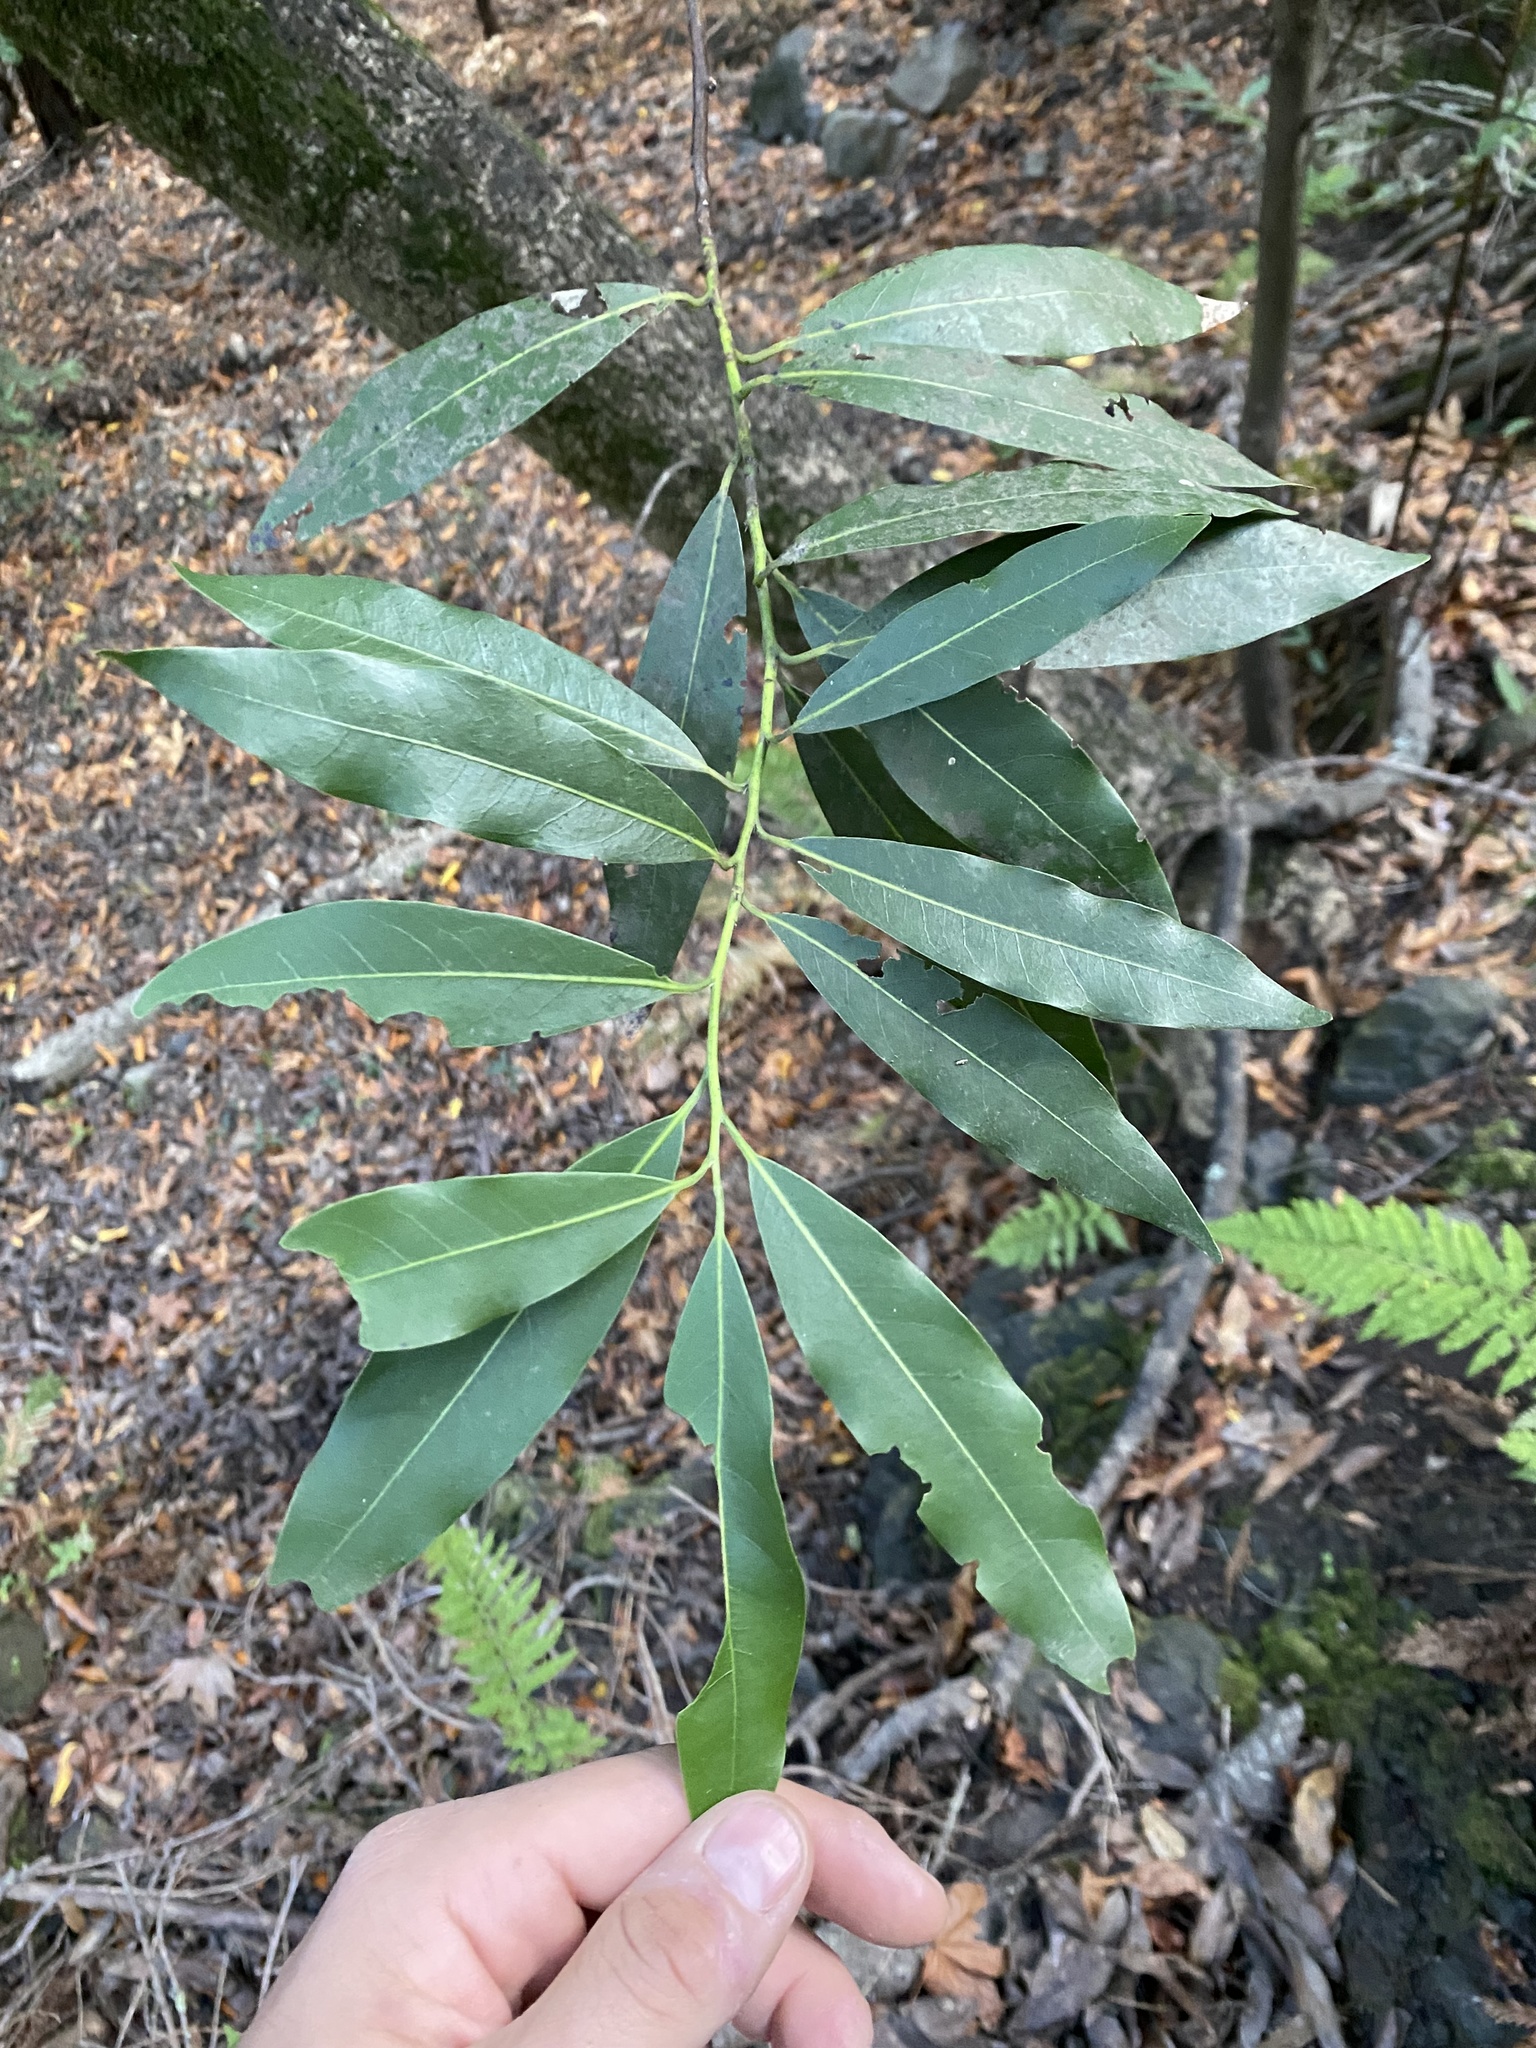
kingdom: Plantae
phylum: Tracheophyta
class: Magnoliopsida
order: Laurales
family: Lauraceae
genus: Umbellularia
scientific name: Umbellularia californica
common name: California bay
